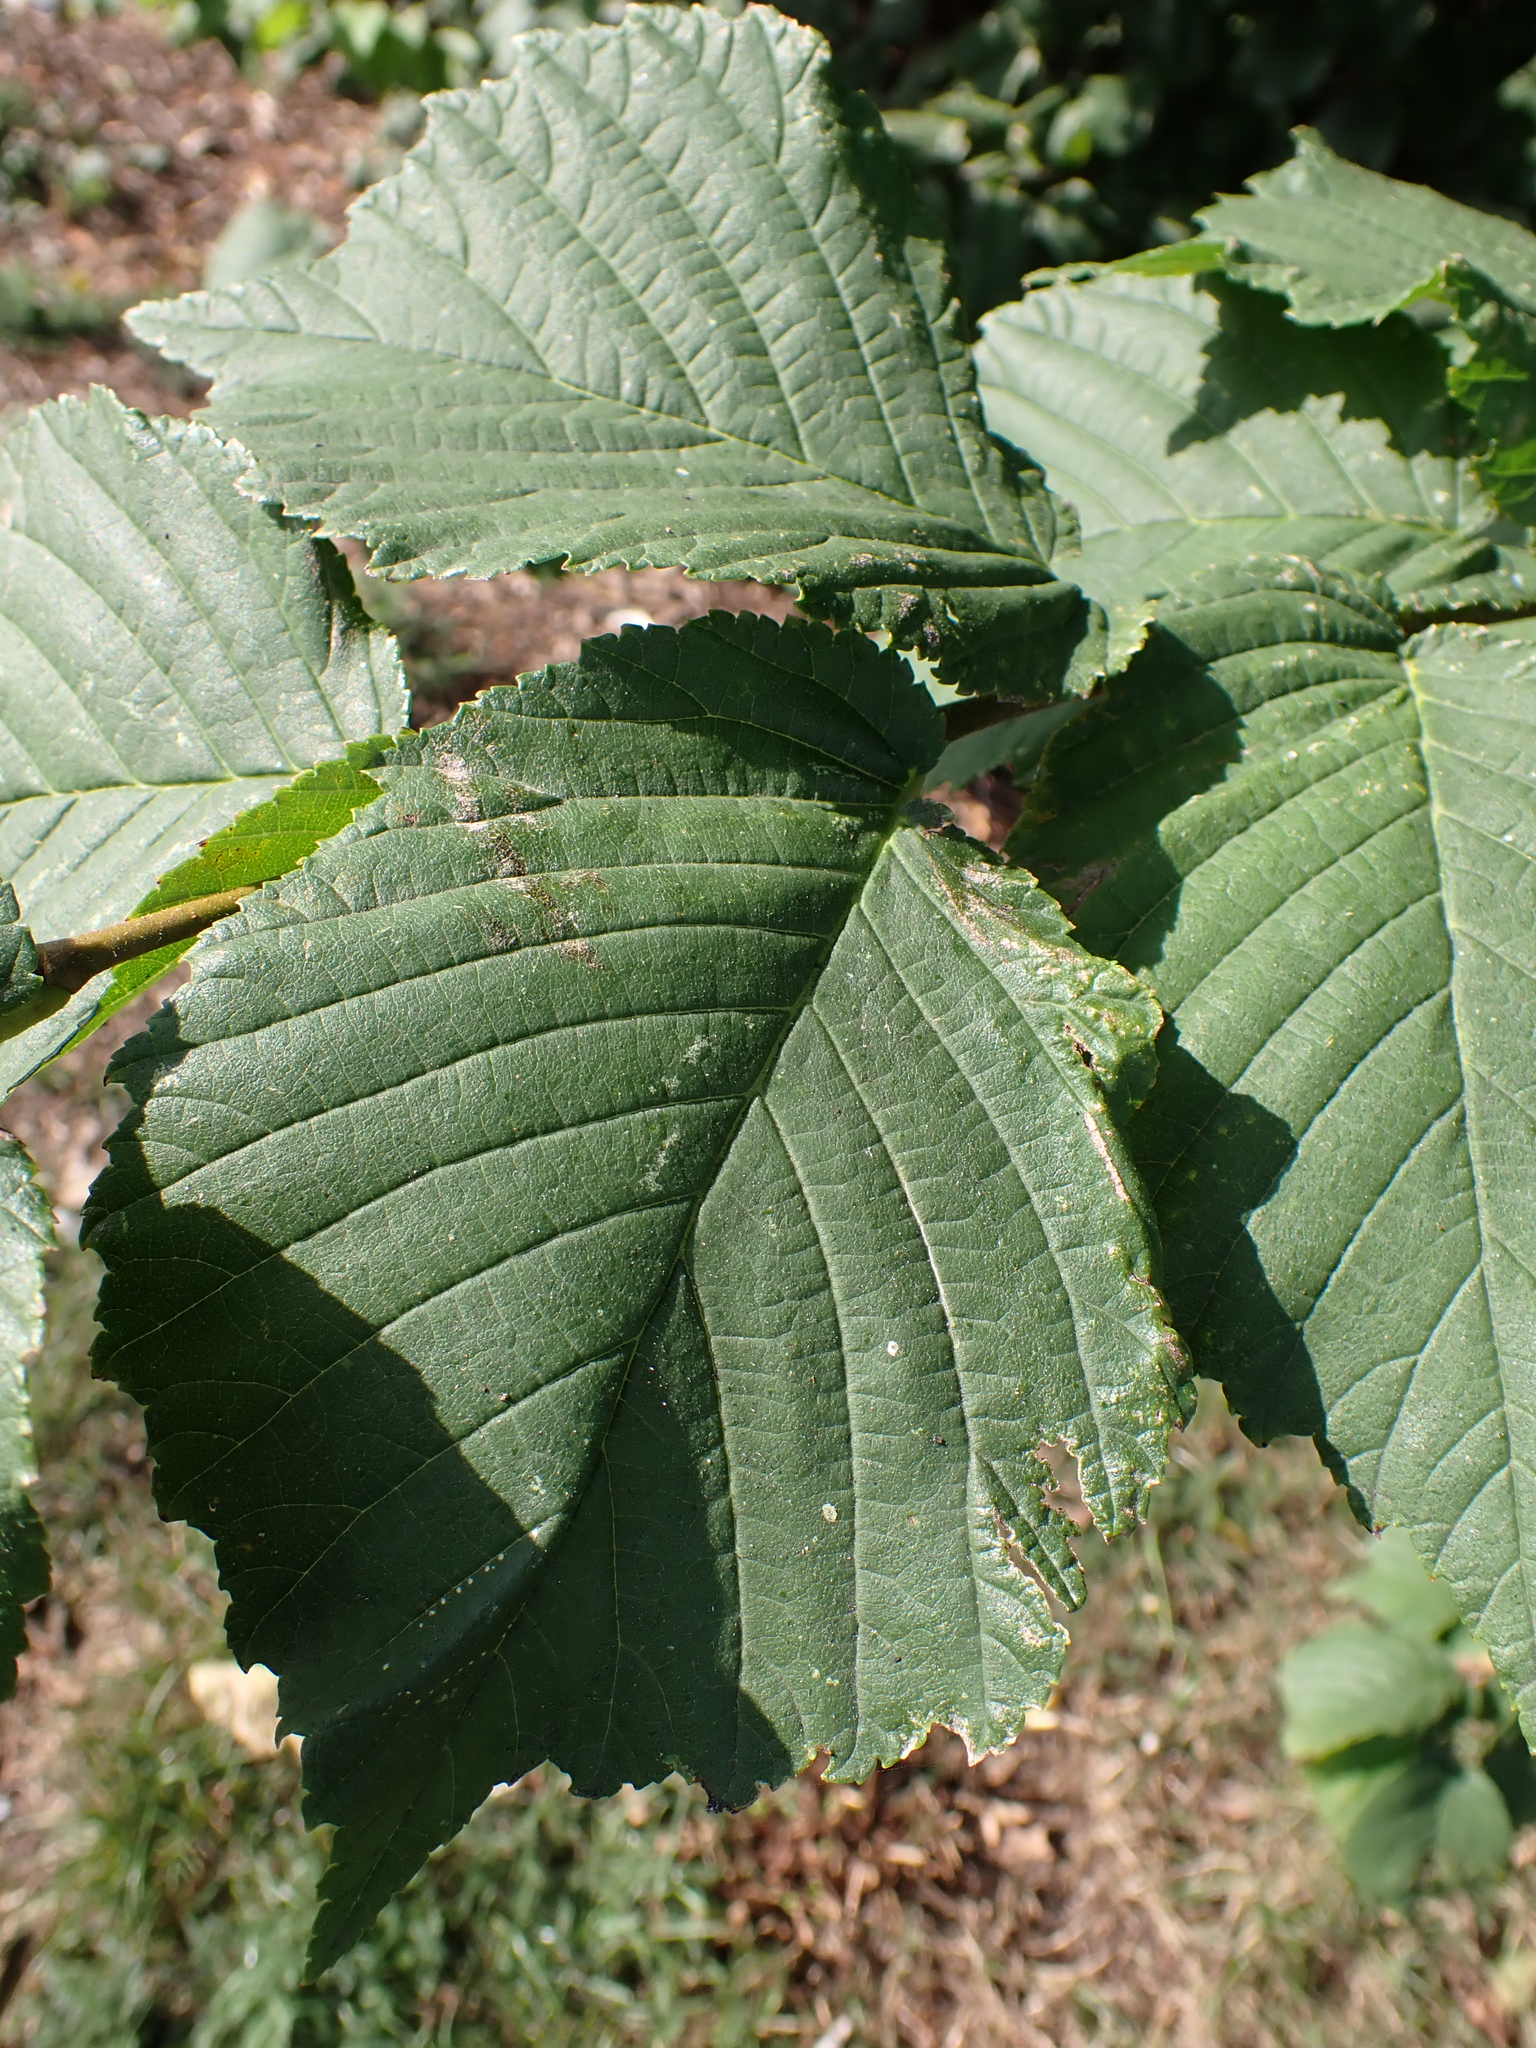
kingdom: Plantae
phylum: Tracheophyta
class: Magnoliopsida
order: Fagales
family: Betulaceae
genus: Corylus
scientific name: Corylus avellana
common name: European hazel
